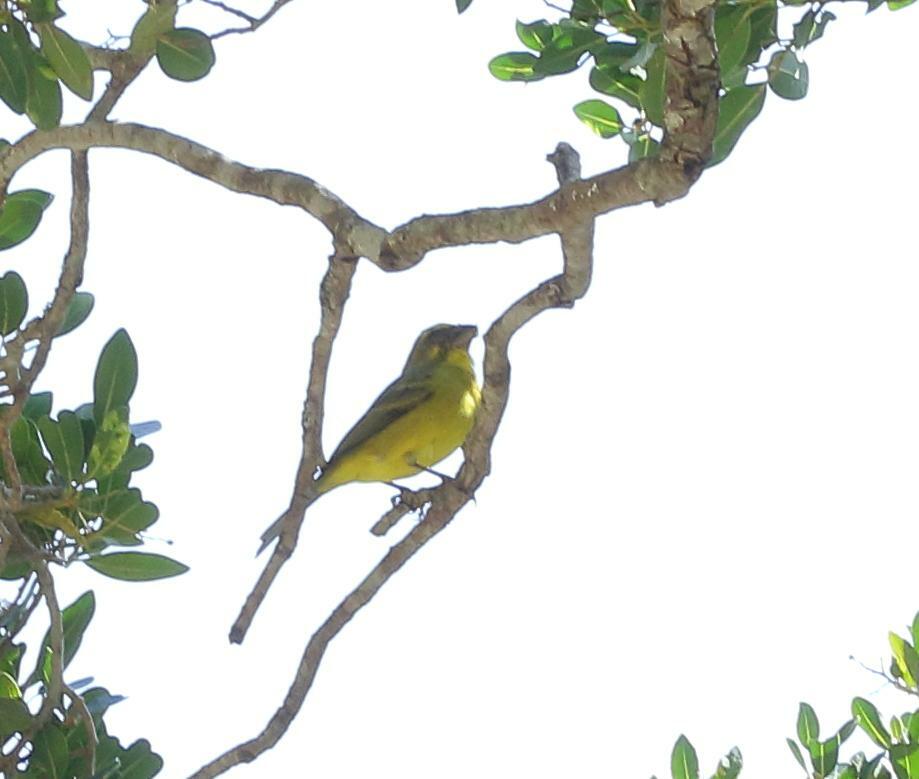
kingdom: Animalia
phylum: Chordata
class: Aves
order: Passeriformes
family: Fringillidae
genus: Crithagra
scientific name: Crithagra sulphurata
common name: Brimstone canary
